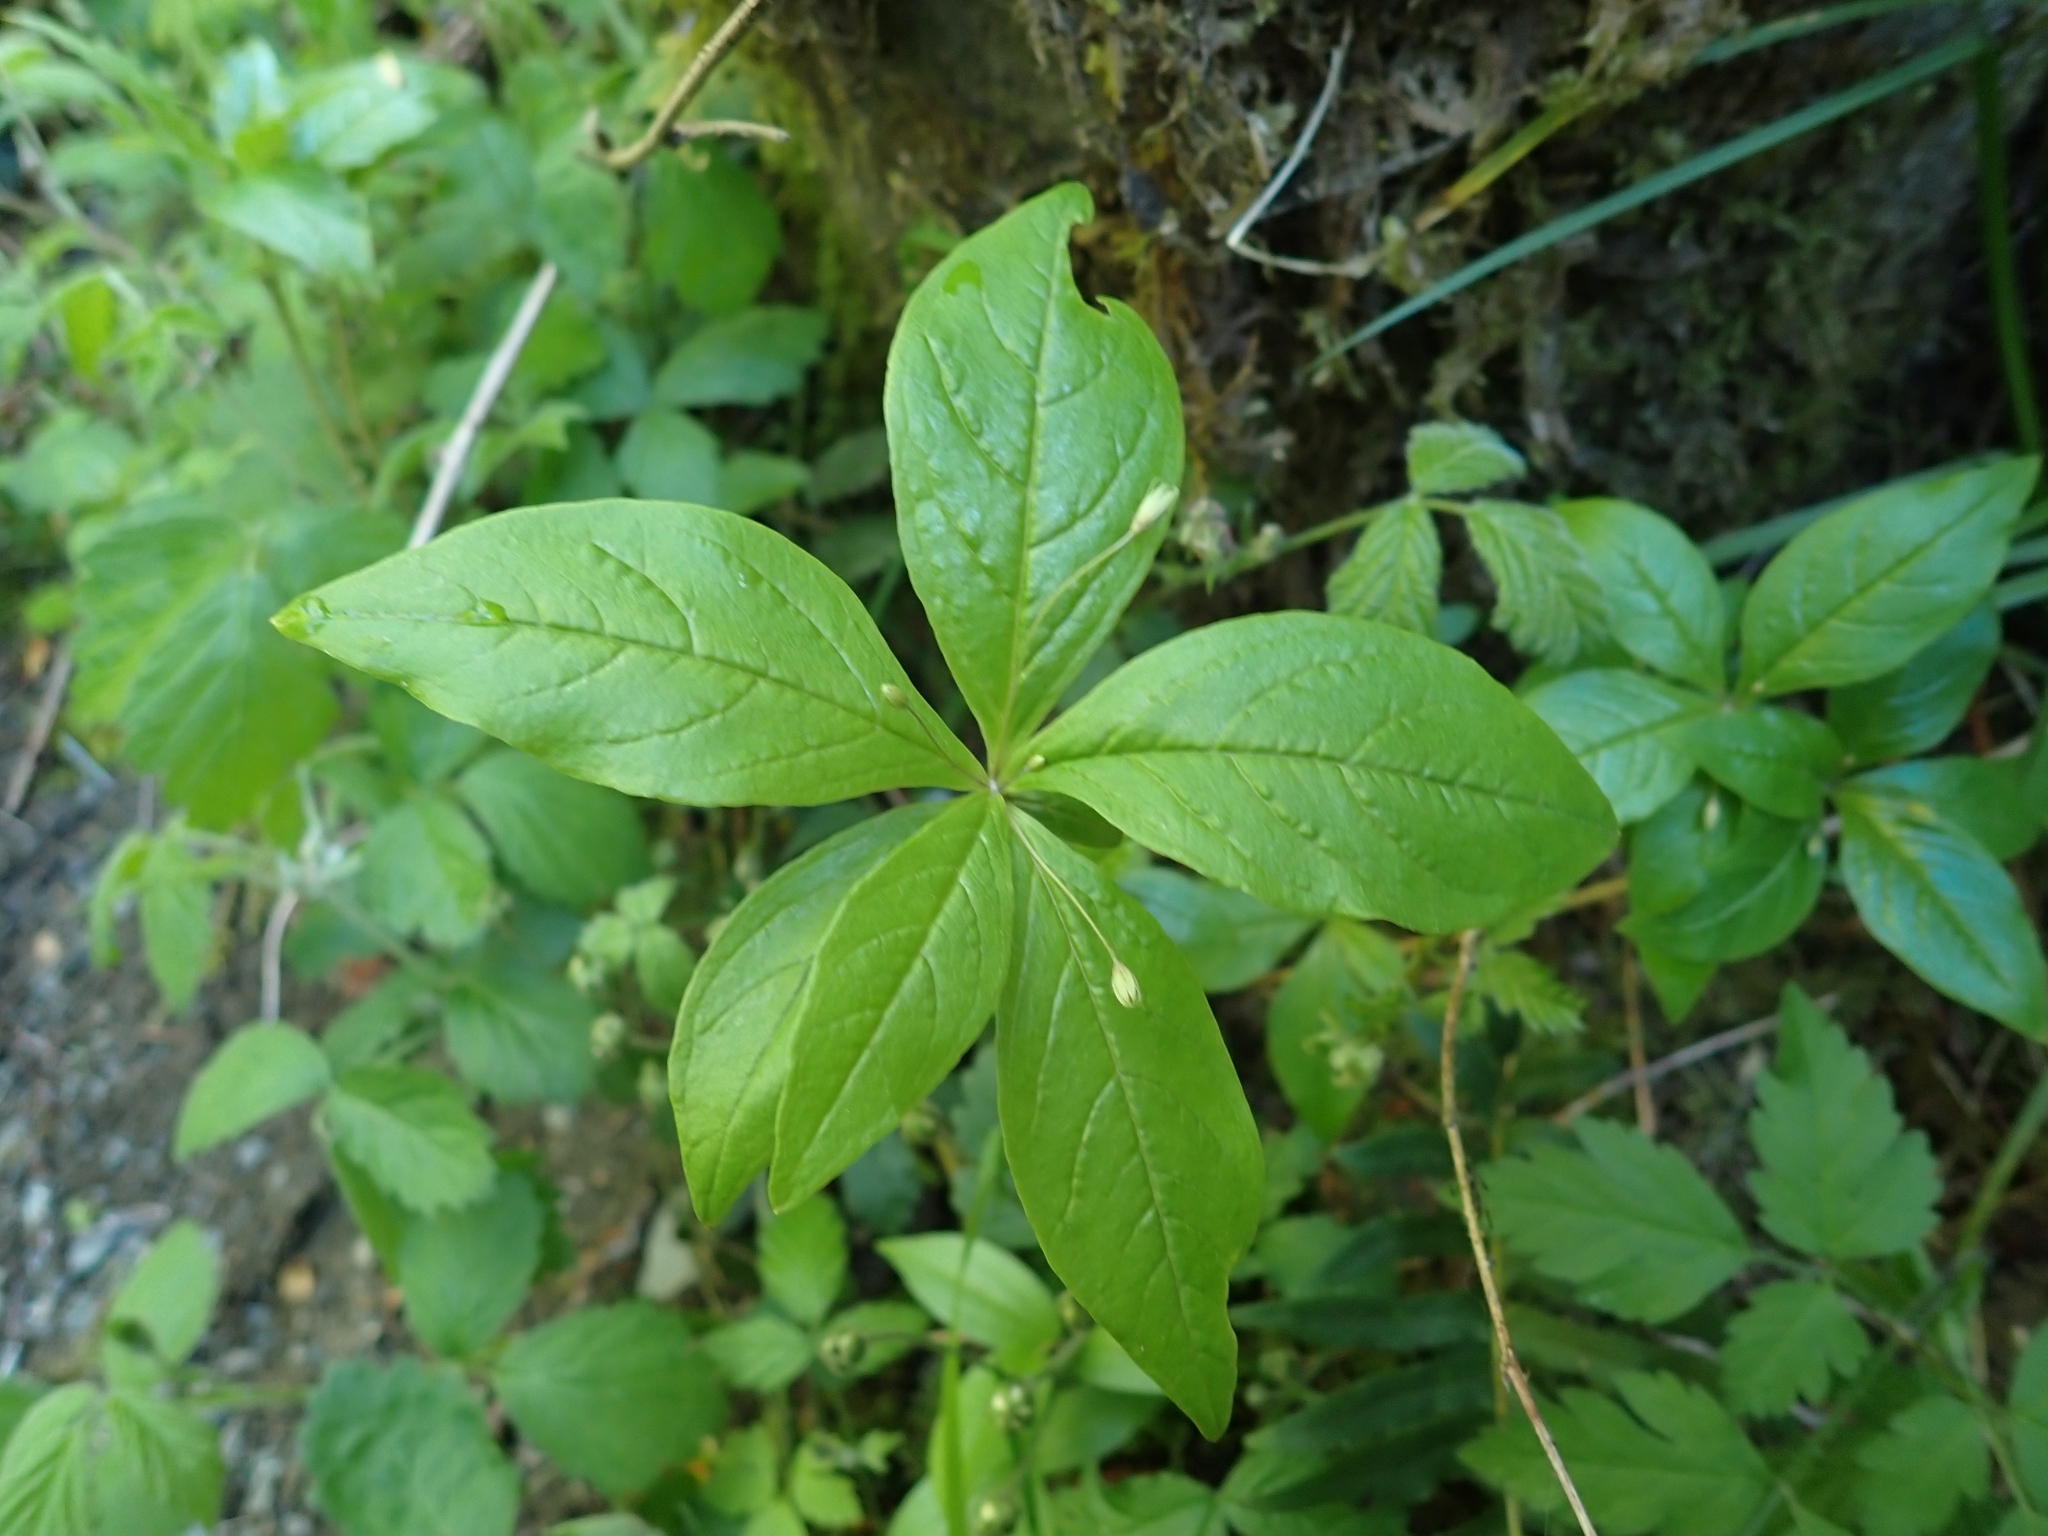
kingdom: Plantae
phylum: Tracheophyta
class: Magnoliopsida
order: Ericales
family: Primulaceae
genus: Lysimachia
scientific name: Lysimachia latifolia
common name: Pacific starflower
